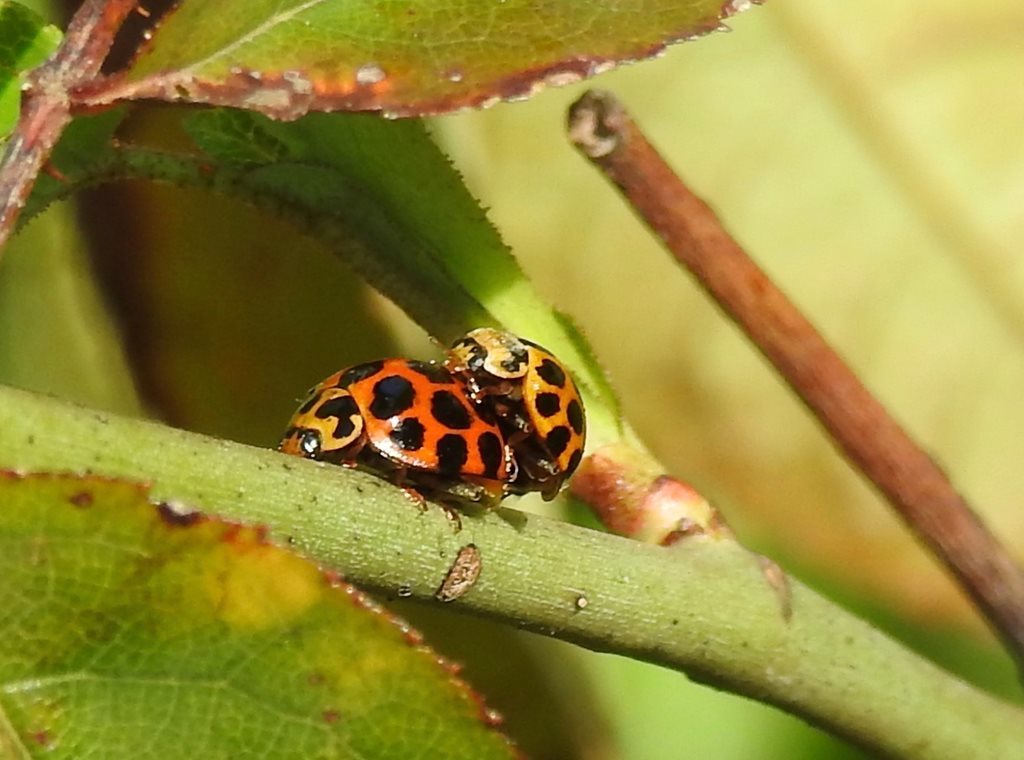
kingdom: Animalia
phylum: Arthropoda
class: Insecta
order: Coleoptera
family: Coccinellidae
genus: Harmonia
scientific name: Harmonia conformis
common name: Common spotted ladybird beetle
